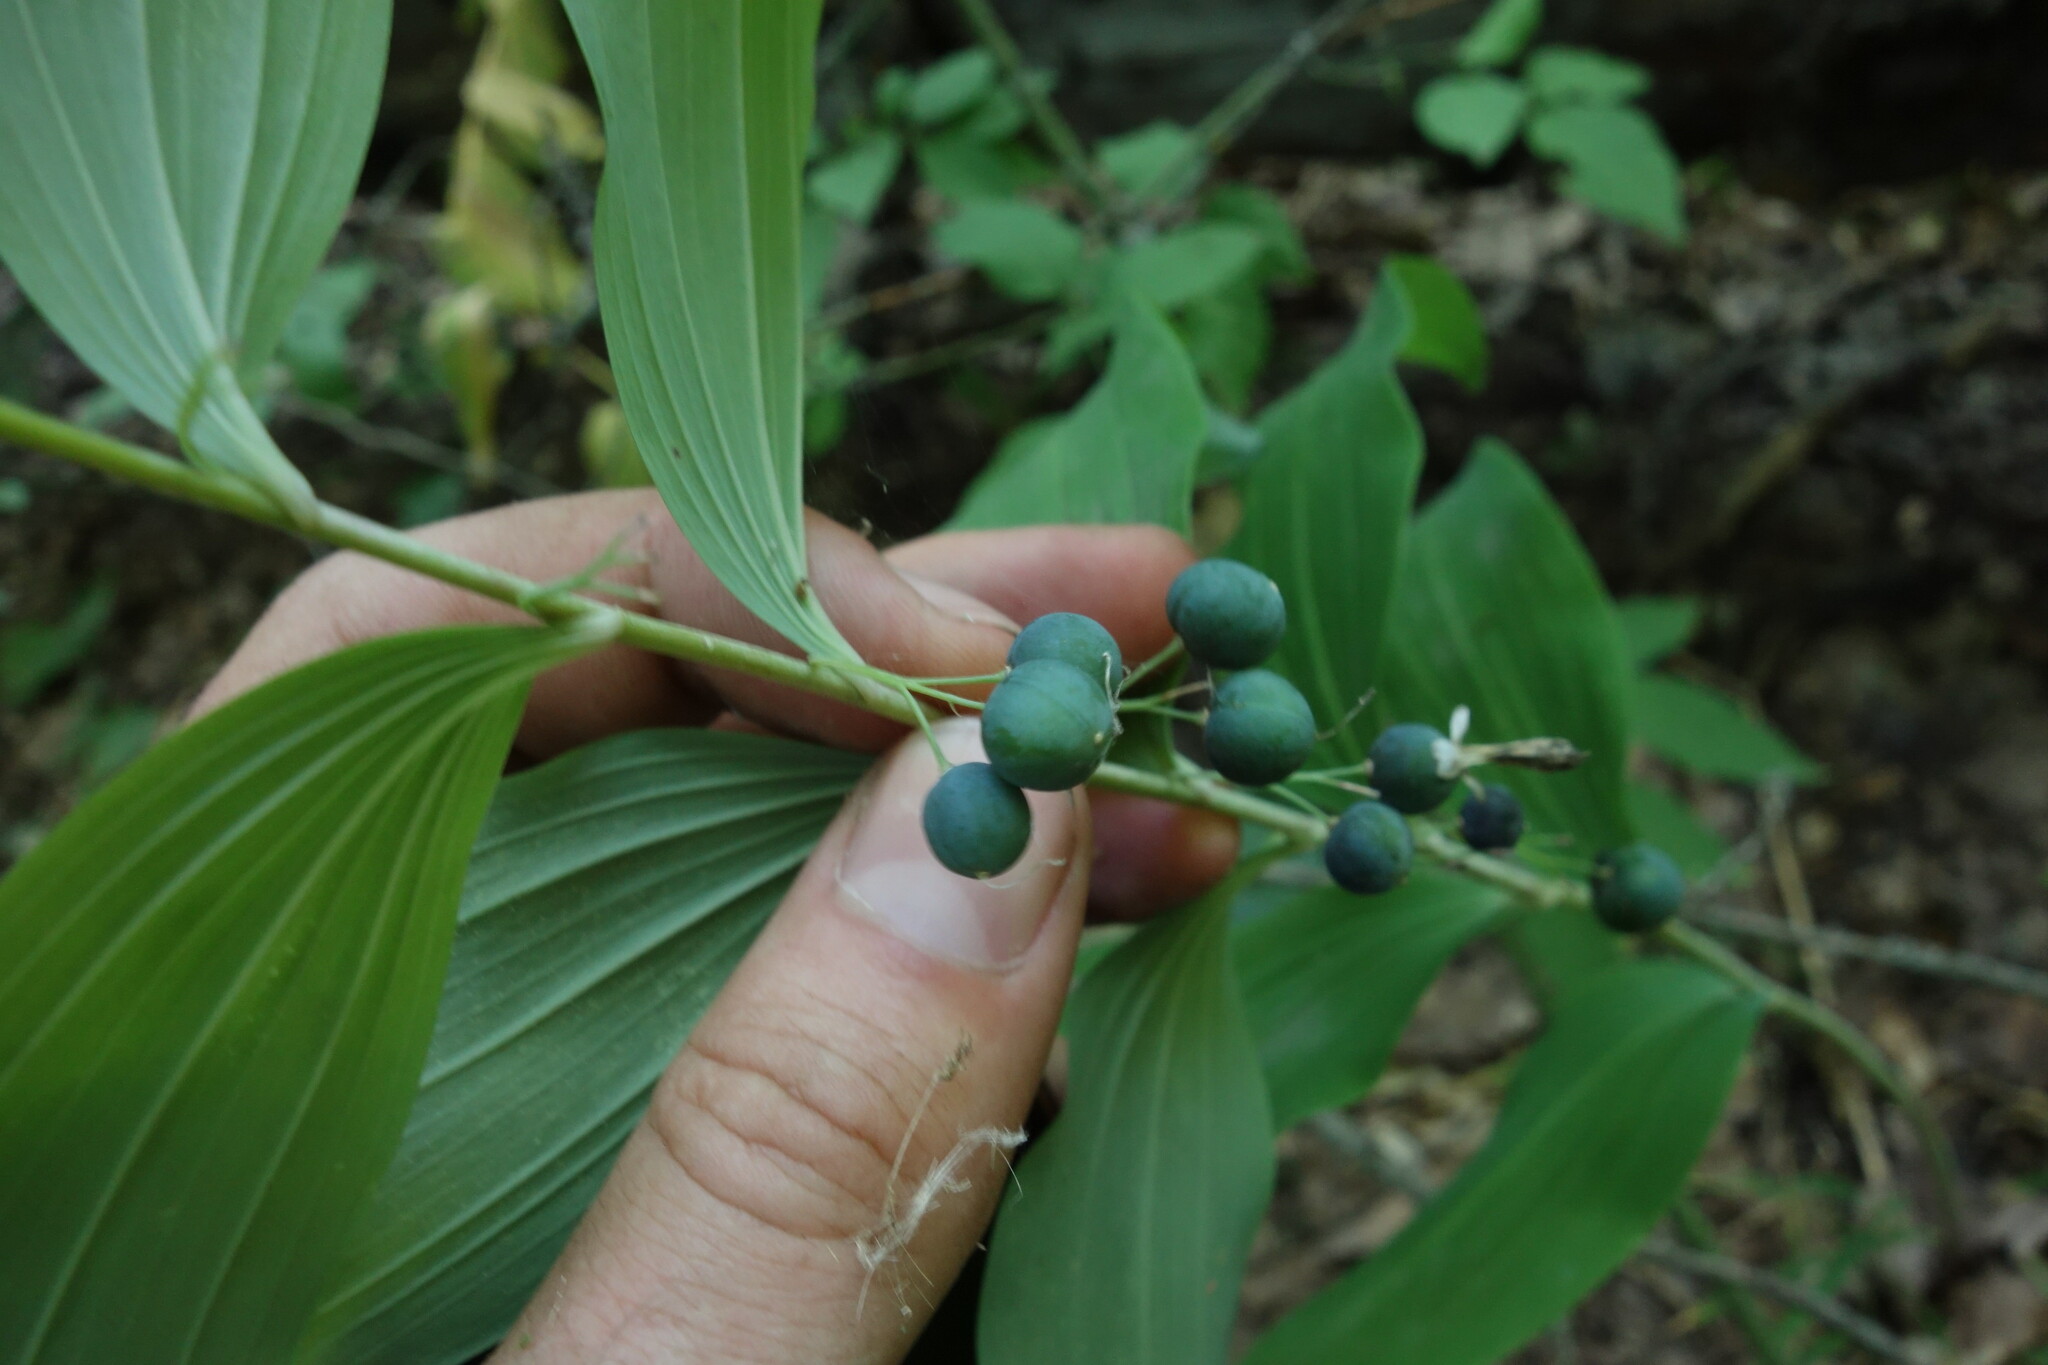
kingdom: Plantae
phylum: Tracheophyta
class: Liliopsida
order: Asparagales
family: Asparagaceae
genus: Polygonatum
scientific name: Polygonatum multiflorum
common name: Solomon's-seal
